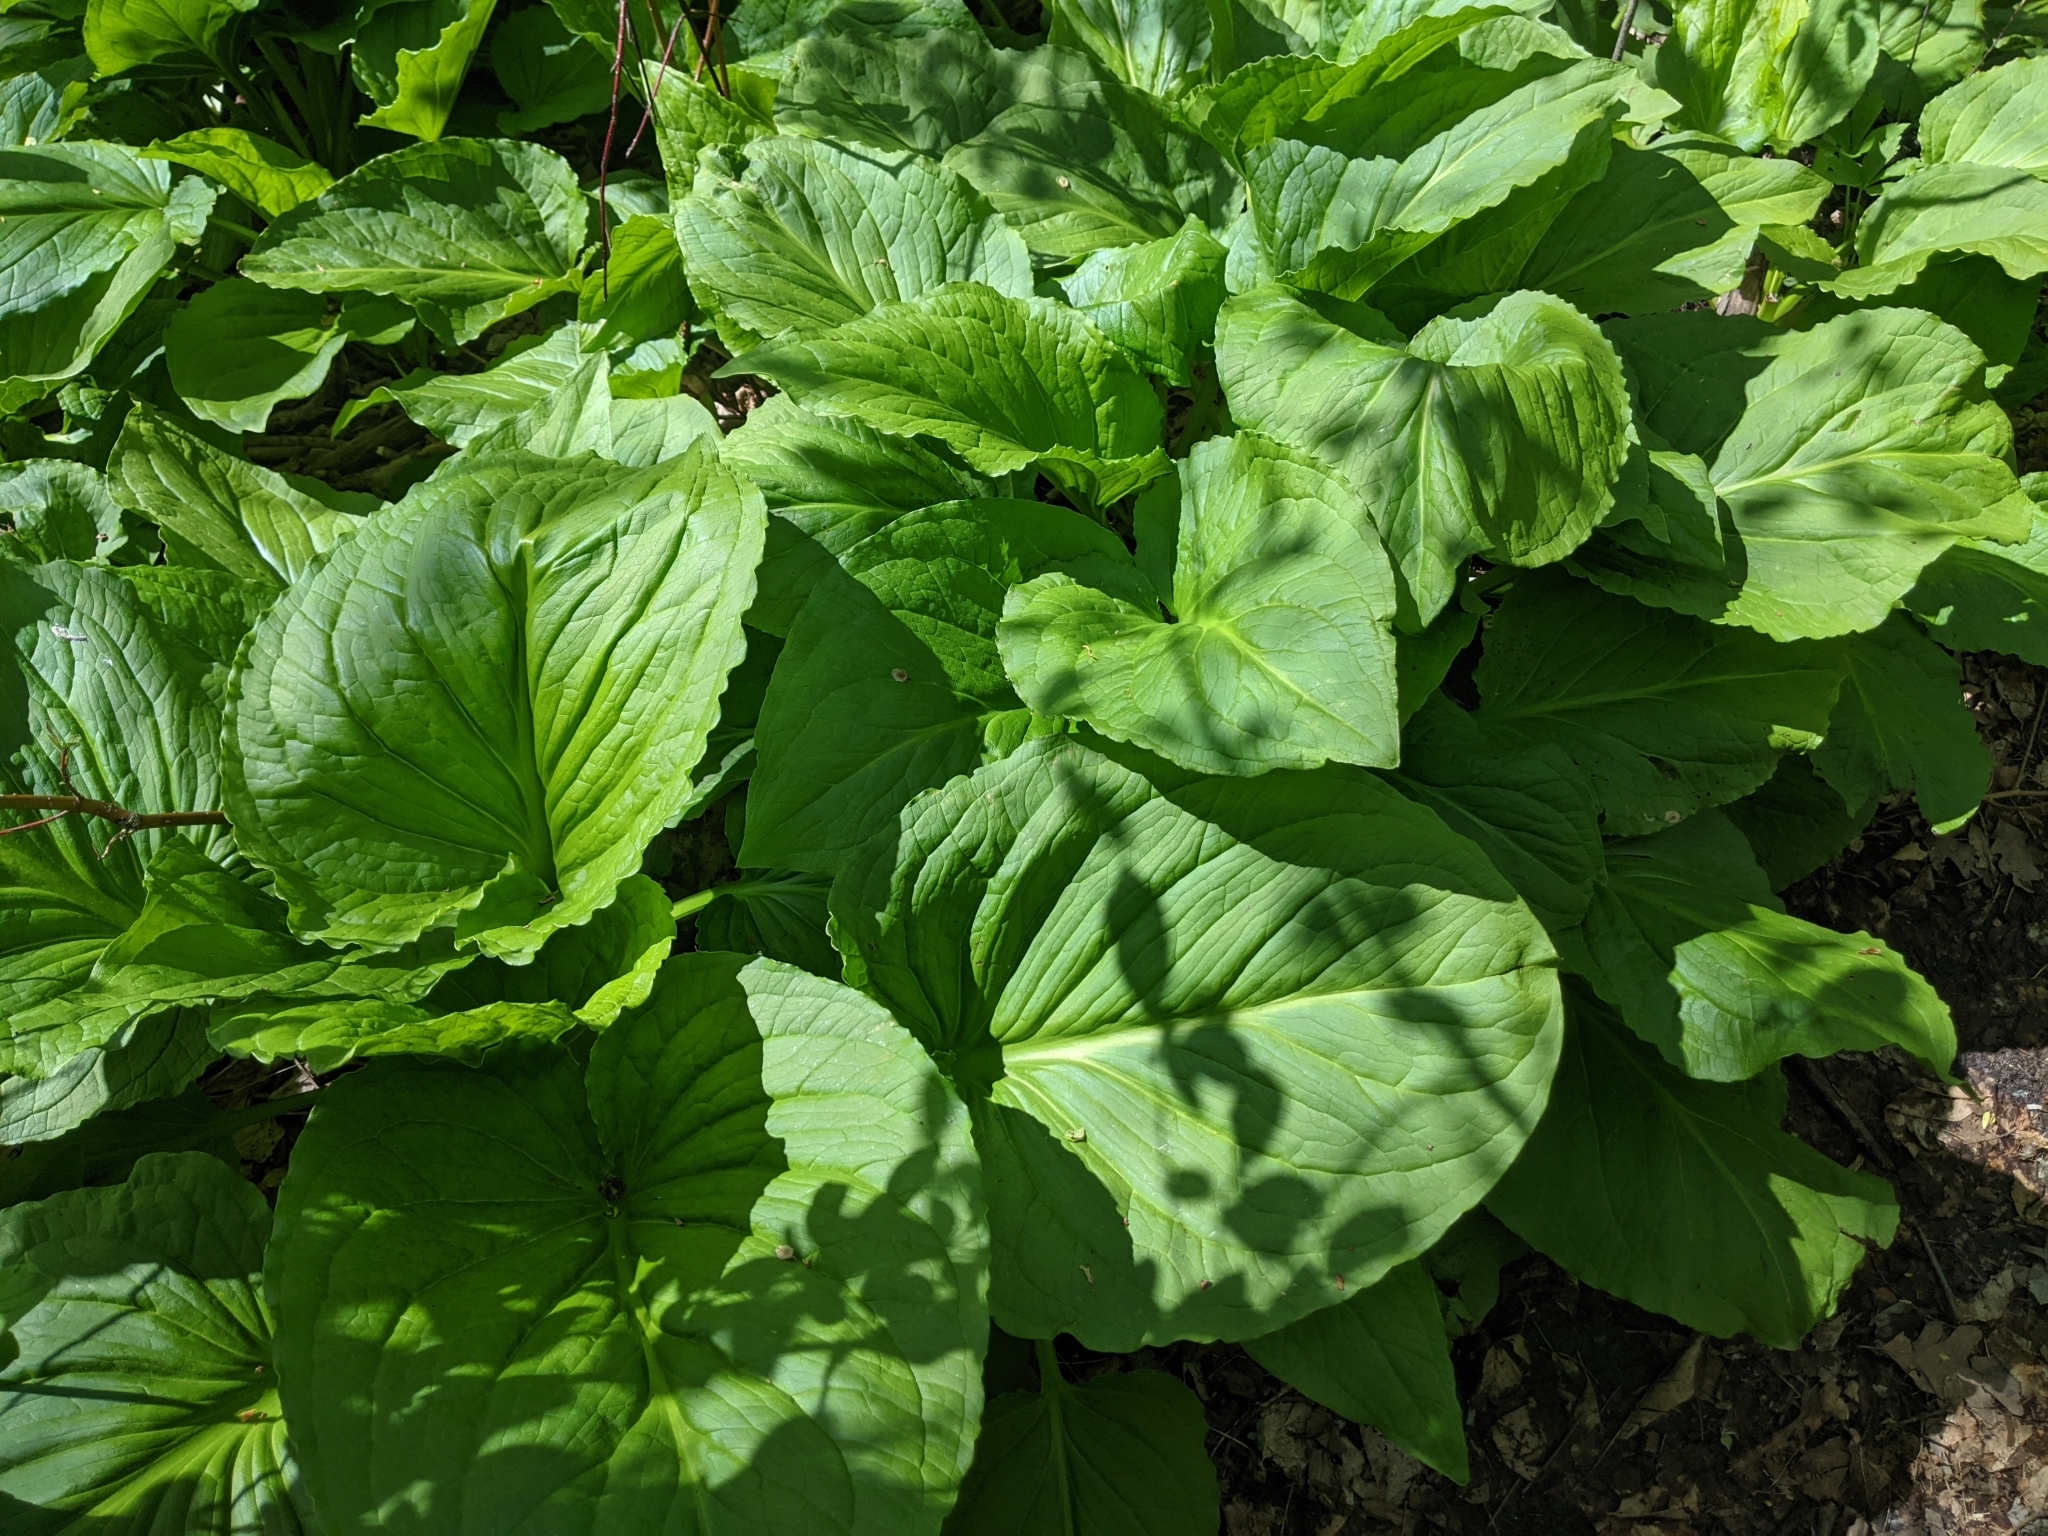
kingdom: Plantae
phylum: Tracheophyta
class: Liliopsida
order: Alismatales
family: Araceae
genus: Symplocarpus
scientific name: Symplocarpus foetidus
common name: Eastern skunk cabbage
